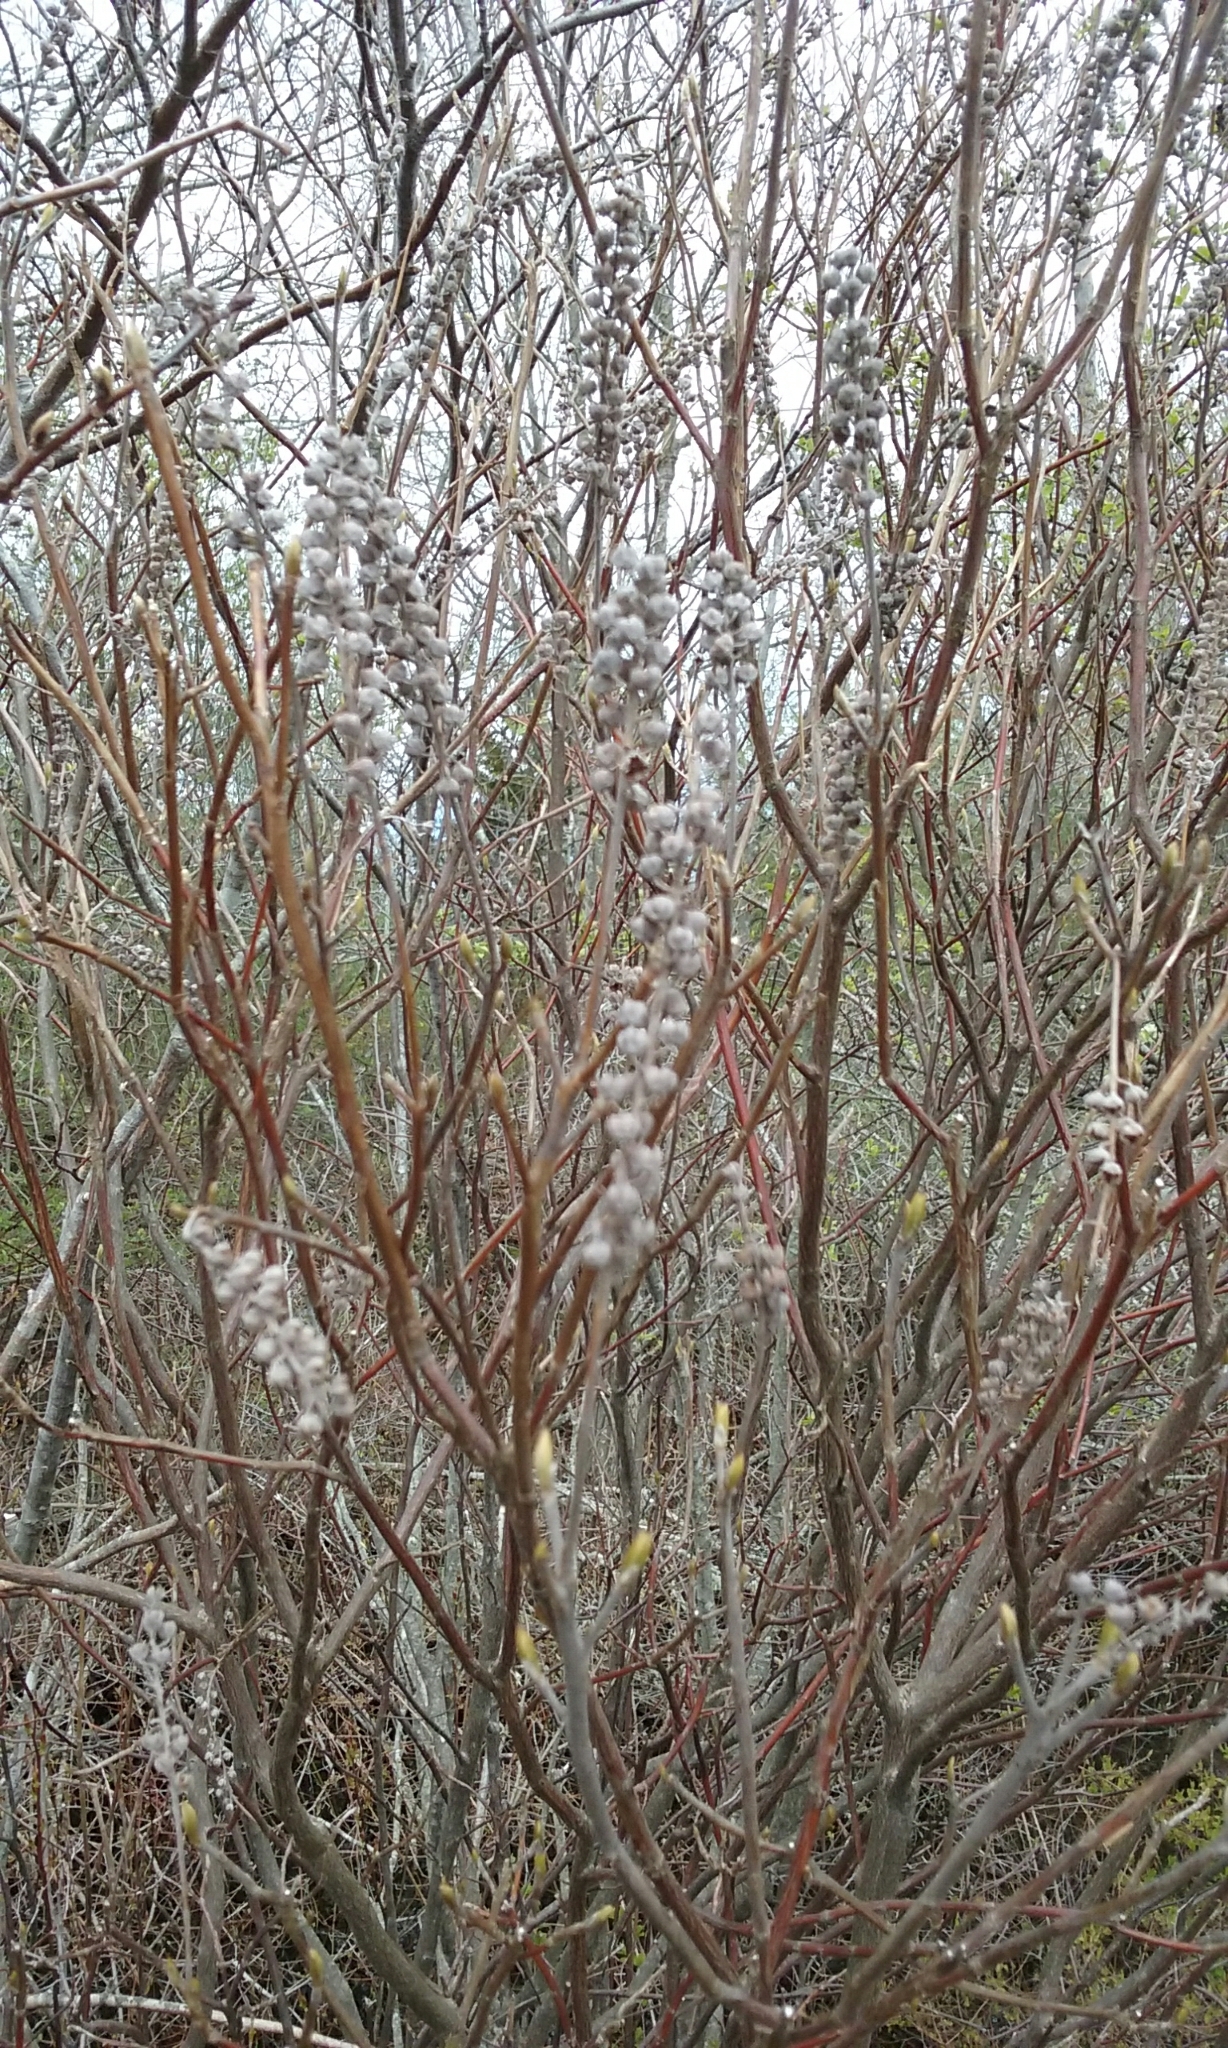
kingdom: Plantae
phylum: Tracheophyta
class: Magnoliopsida
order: Ericales
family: Clethraceae
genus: Clethra
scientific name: Clethra alnifolia
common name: Sweet pepperbush
